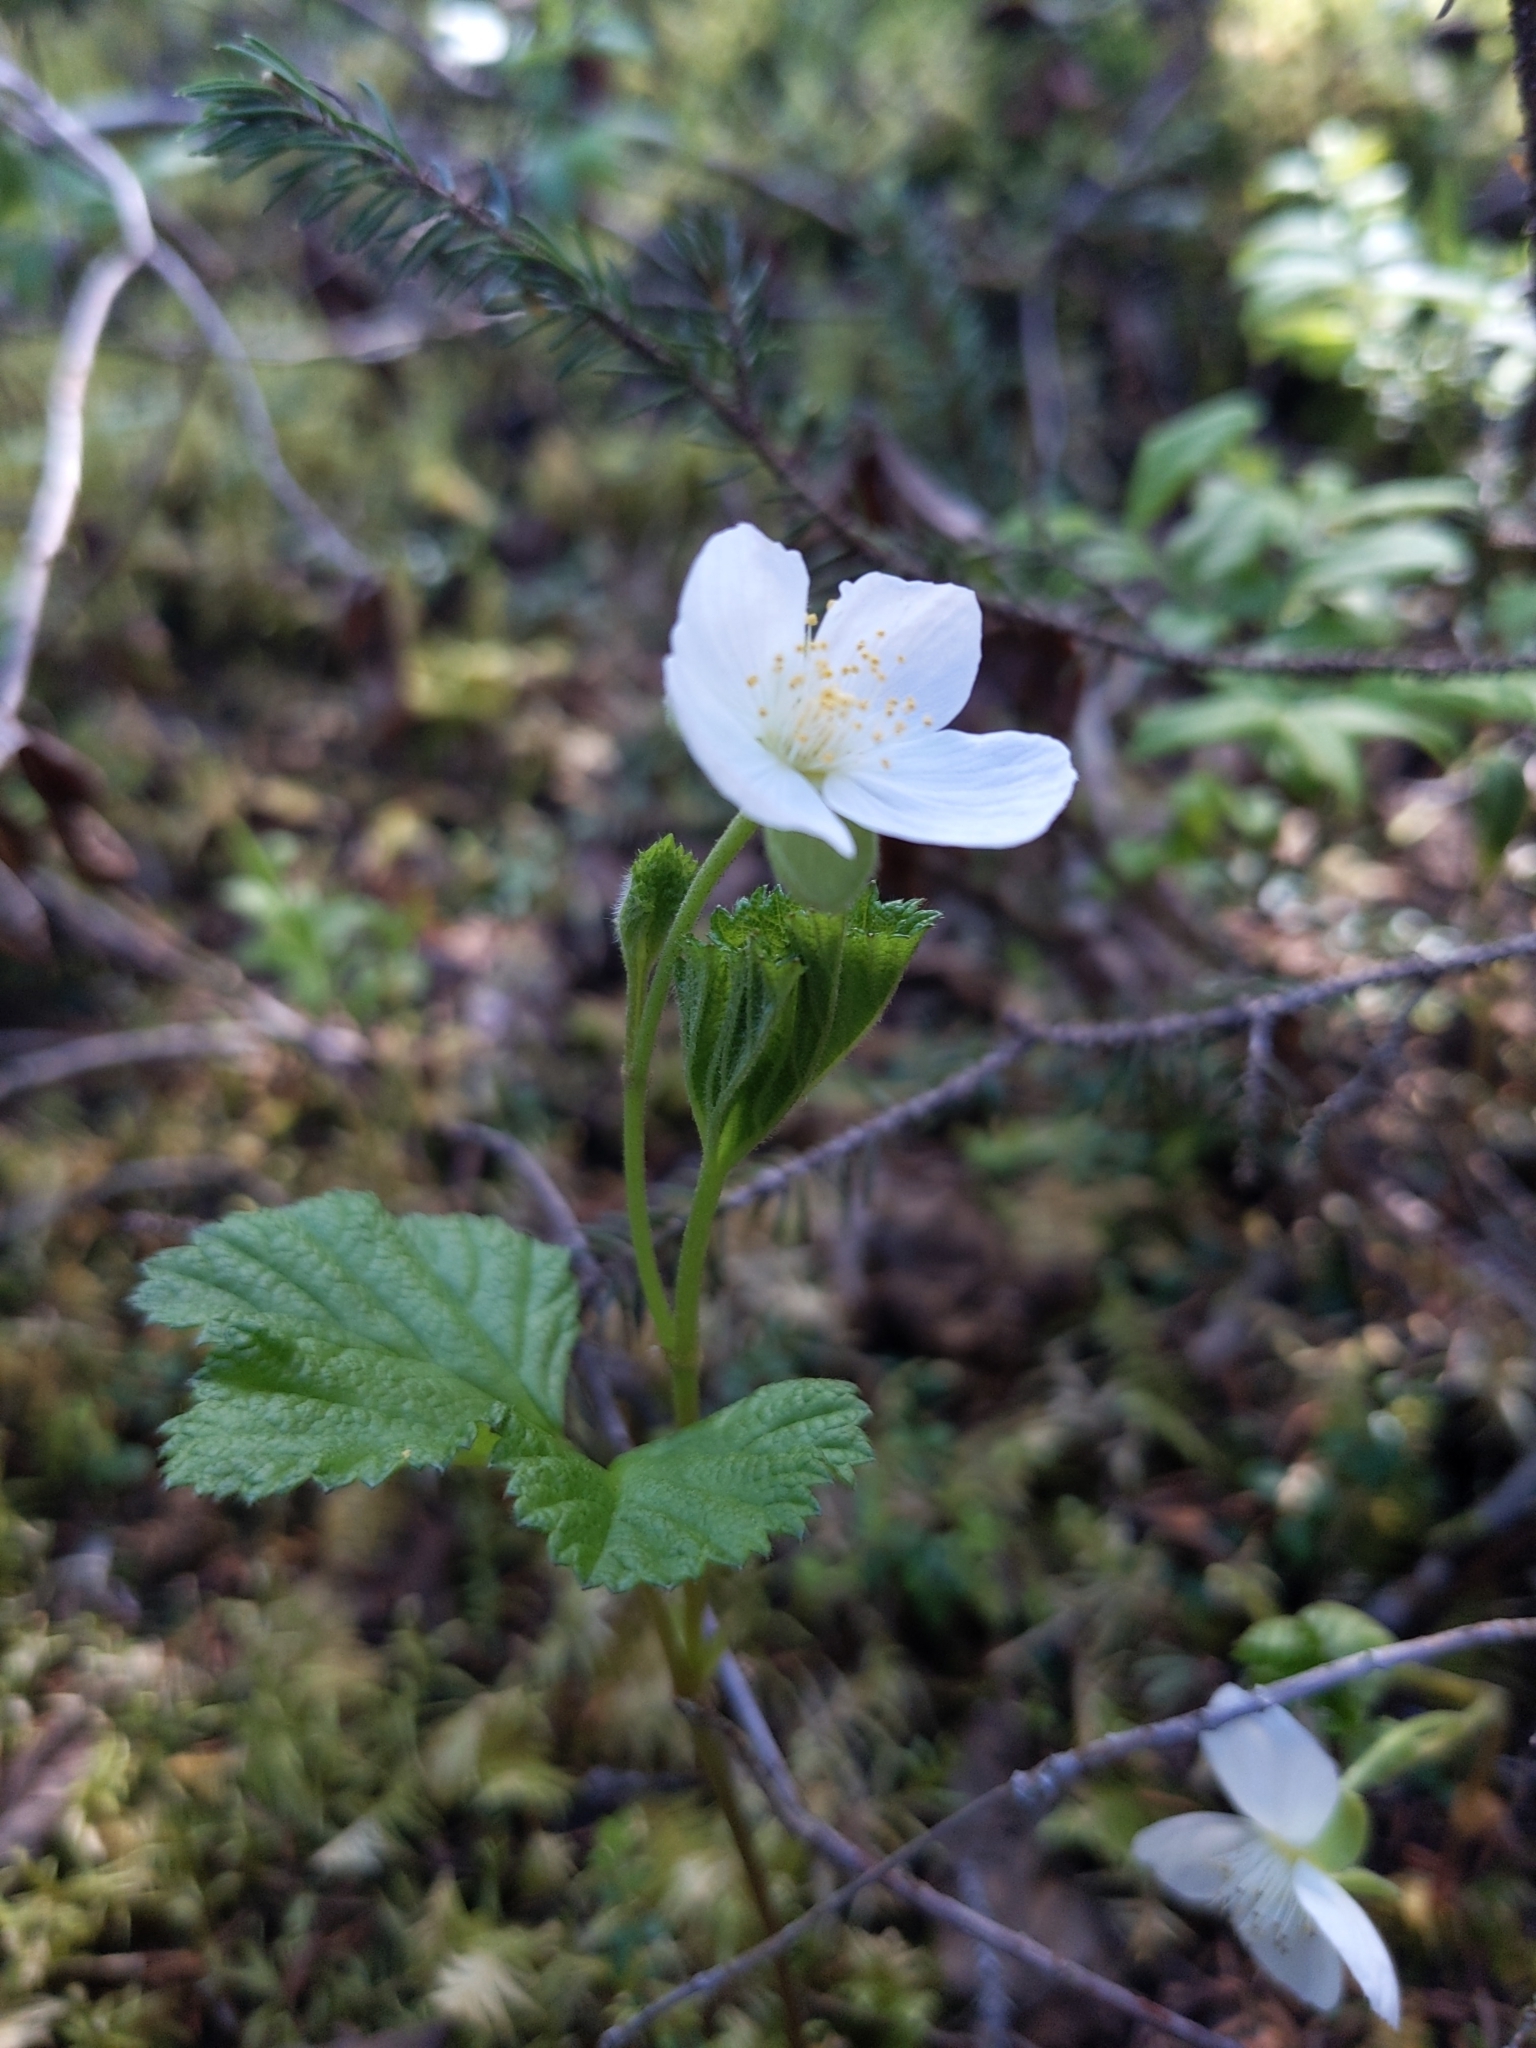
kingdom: Plantae
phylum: Tracheophyta
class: Magnoliopsida
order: Rosales
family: Rosaceae
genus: Rubus
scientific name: Rubus chamaemorus
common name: Cloudberry
